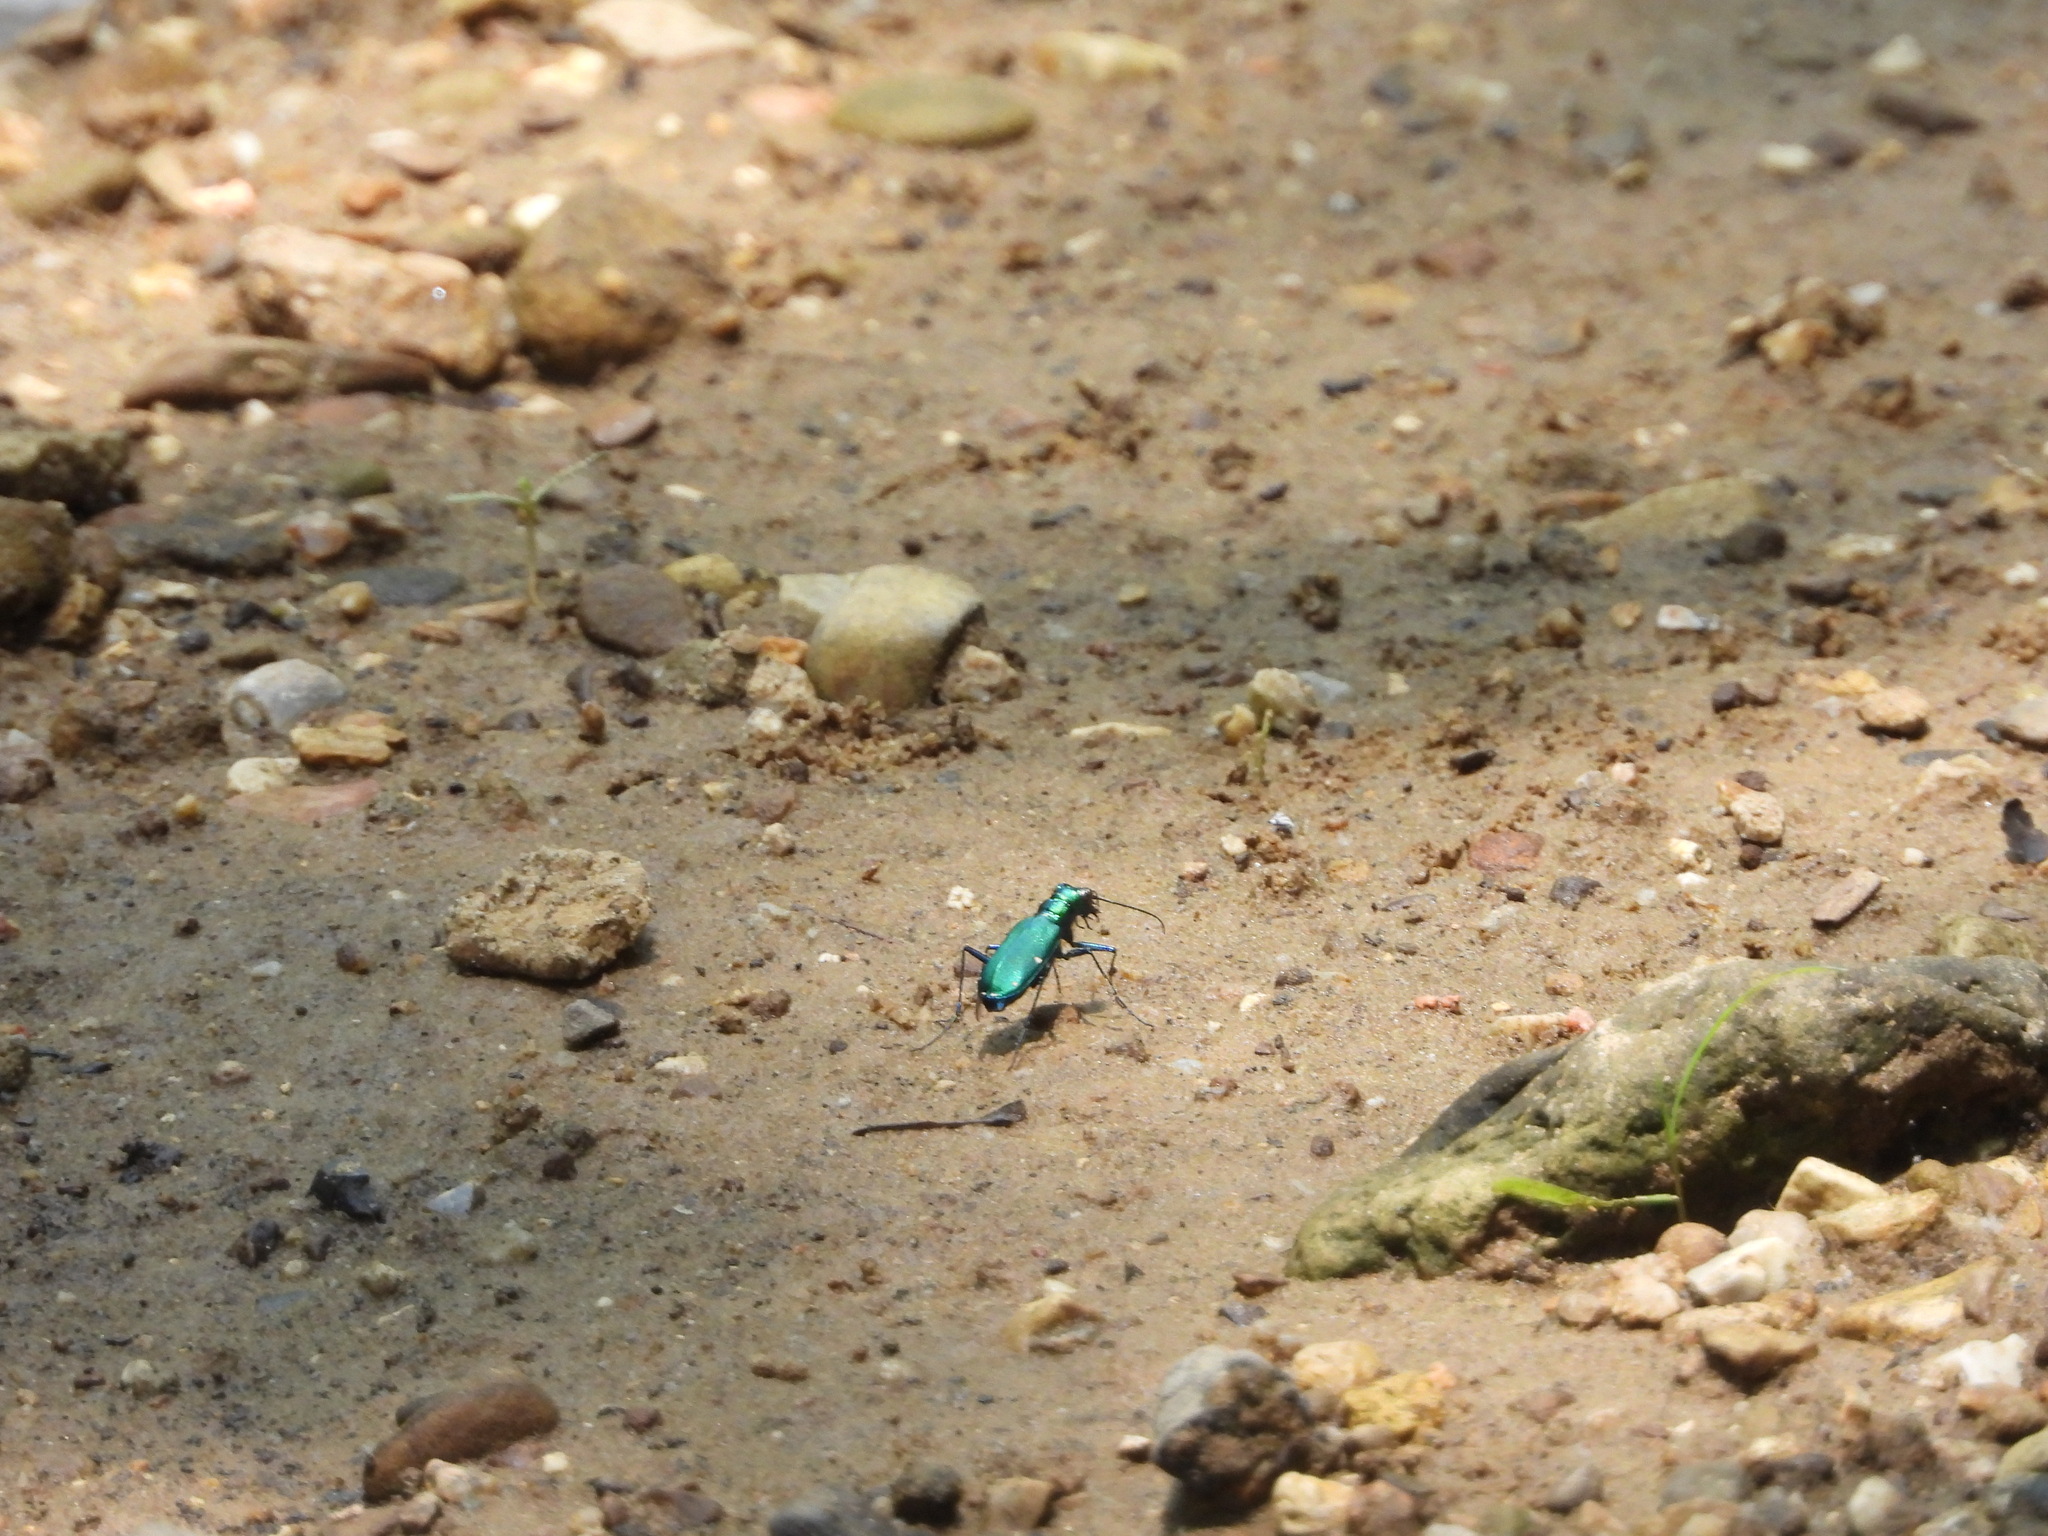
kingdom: Animalia
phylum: Arthropoda
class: Insecta
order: Coleoptera
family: Carabidae
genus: Cicindela
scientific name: Cicindela sexguttata
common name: Six-spotted tiger beetle
